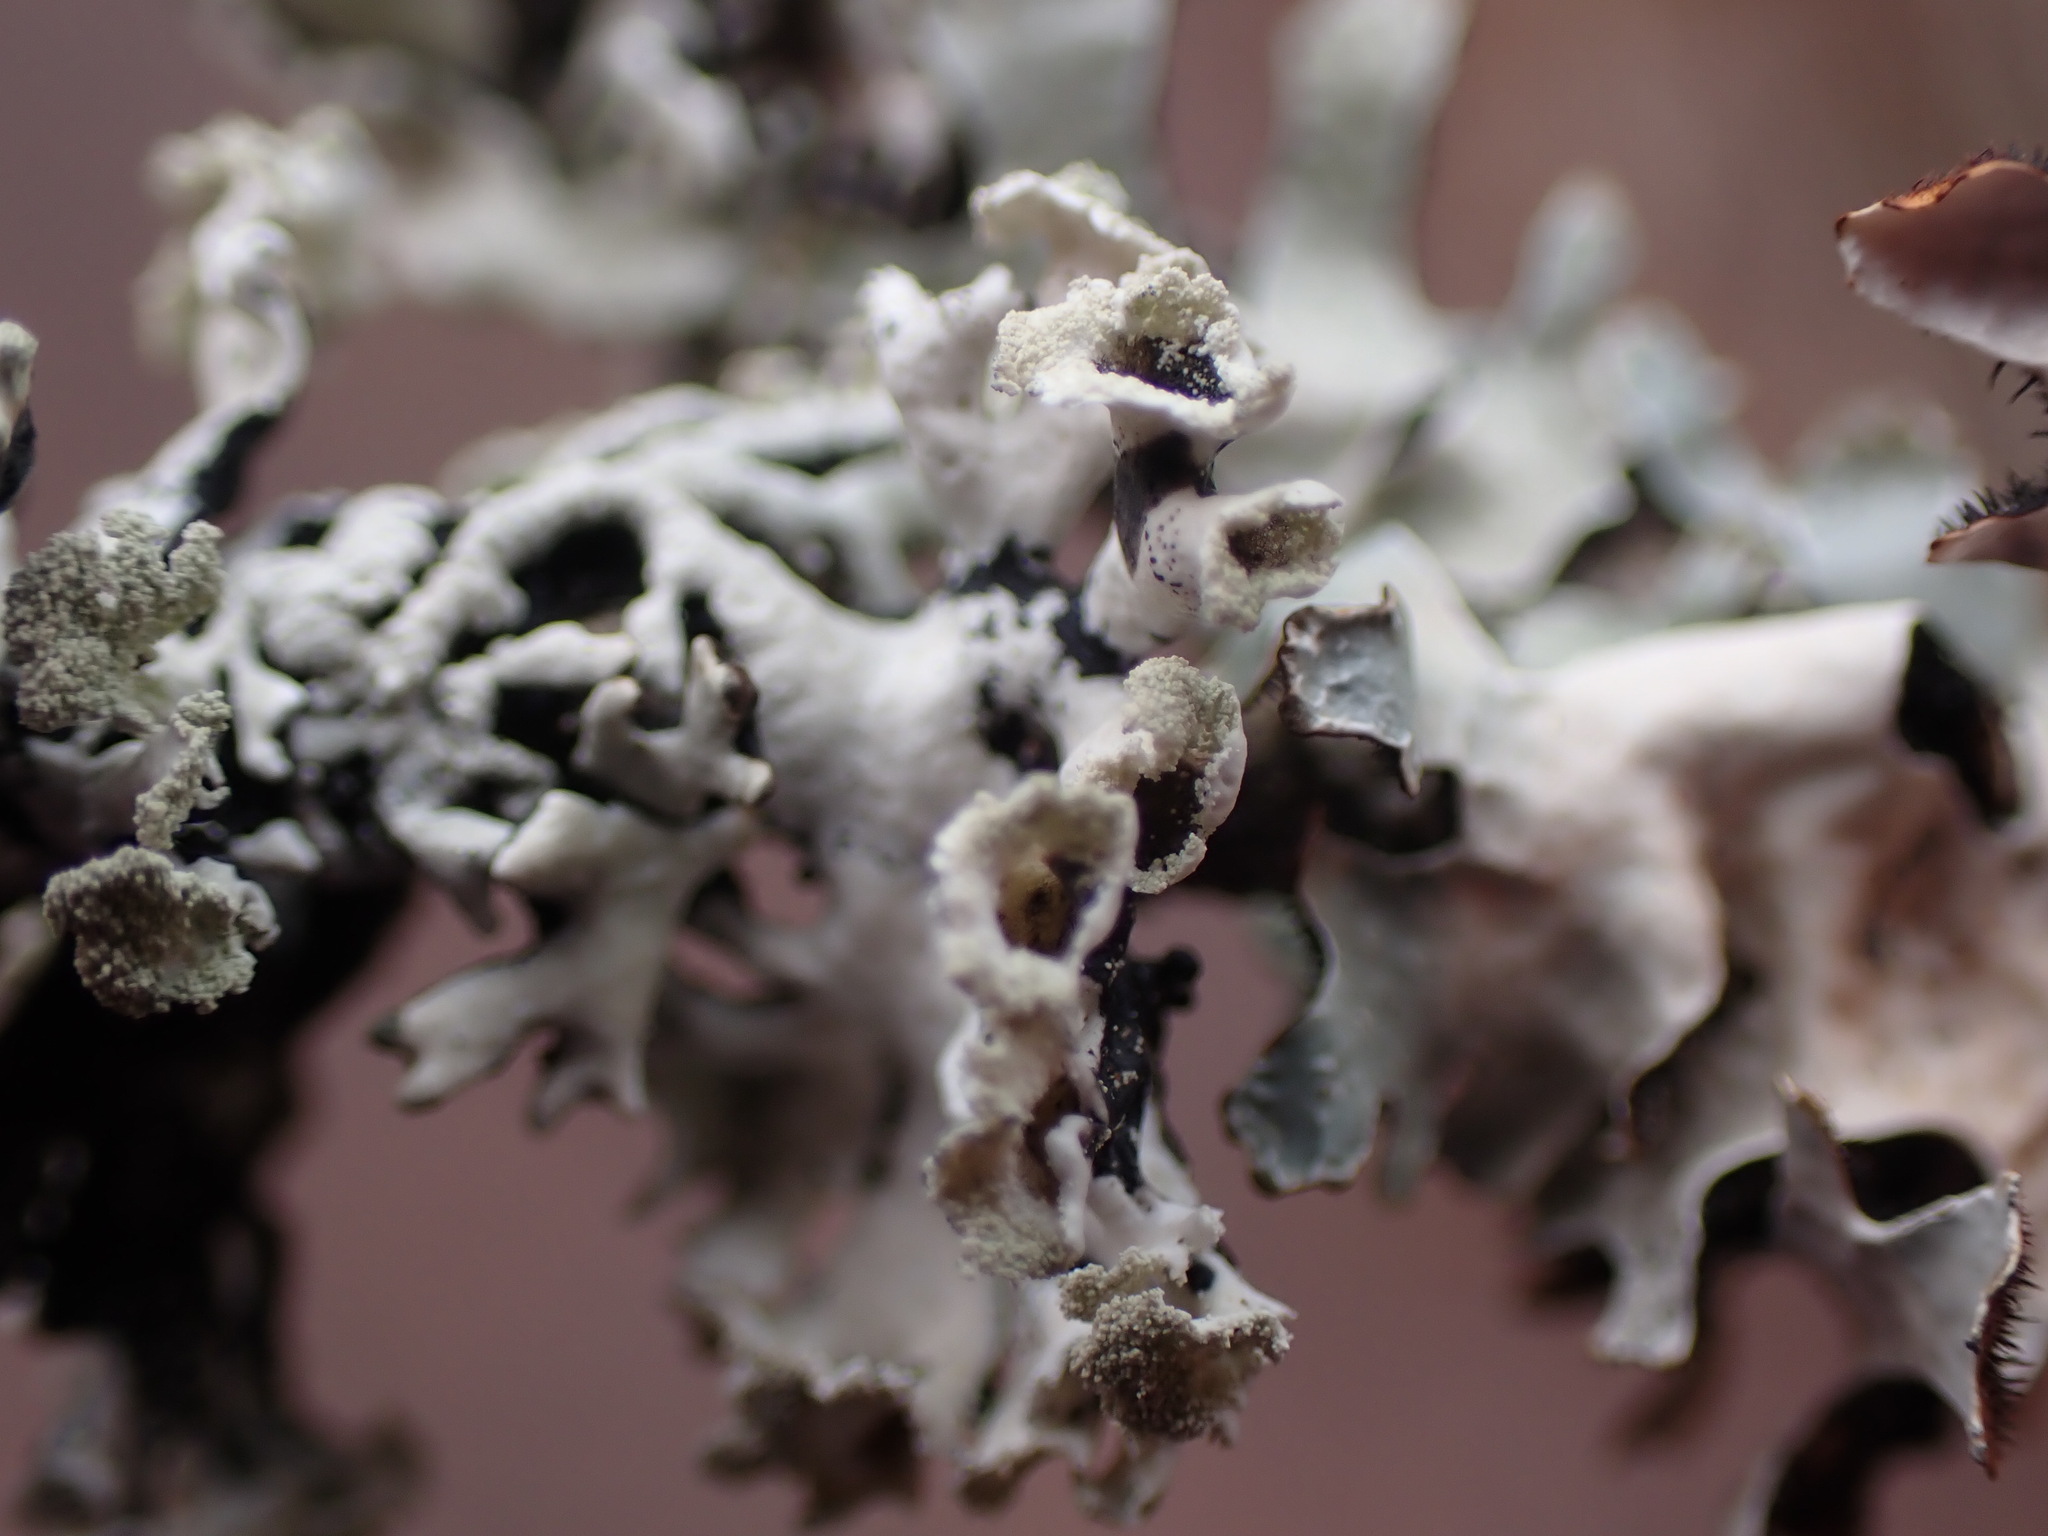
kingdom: Fungi
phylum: Ascomycota
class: Lecanoromycetes
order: Lecanorales
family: Parmeliaceae
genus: Hypogymnia
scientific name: Hypogymnia physodes
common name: Dark crottle
